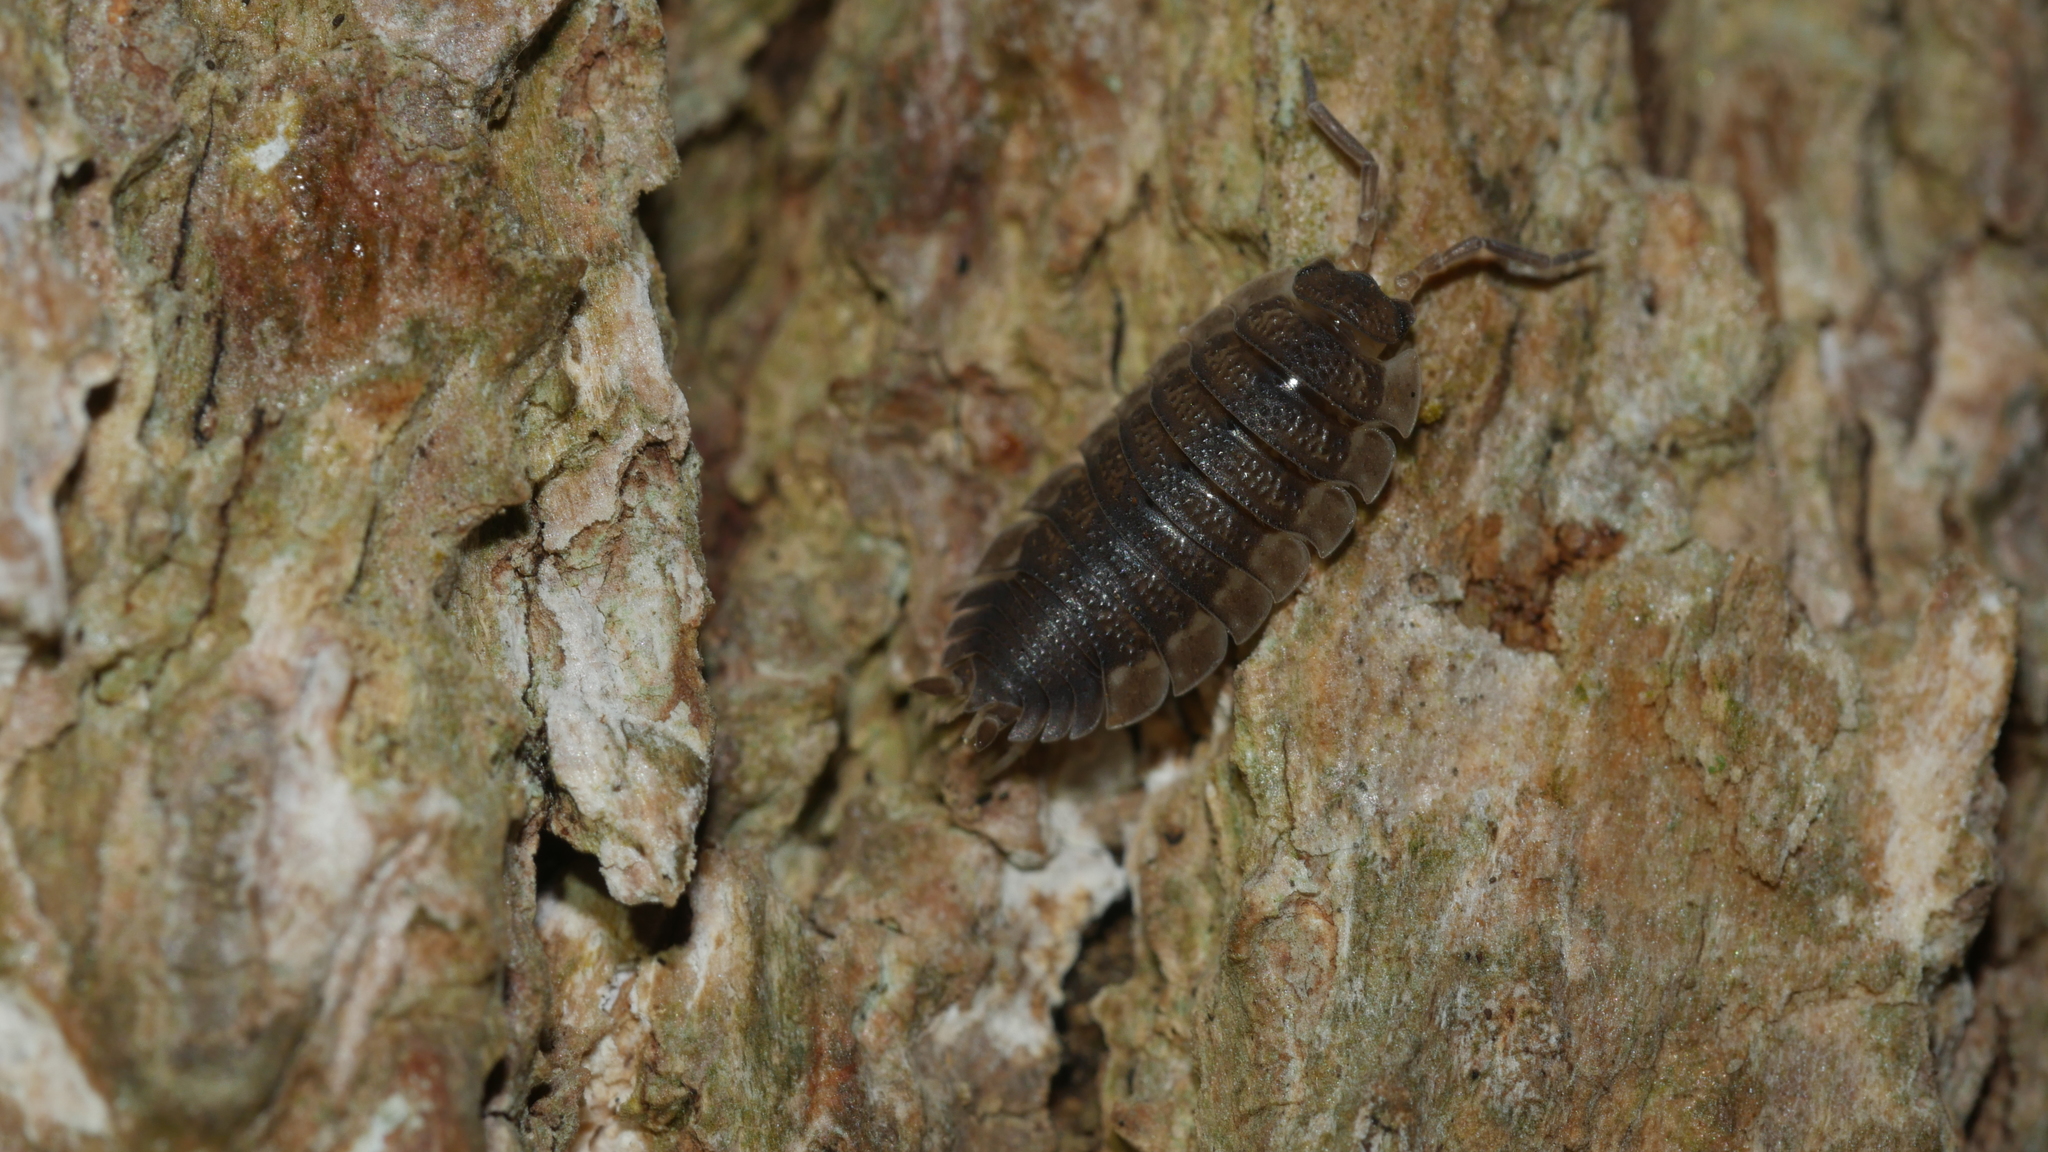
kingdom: Animalia
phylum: Arthropoda
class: Malacostraca
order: Isopoda
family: Porcellionidae
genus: Porcellio
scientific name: Porcellio scaber
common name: Common rough woodlouse
